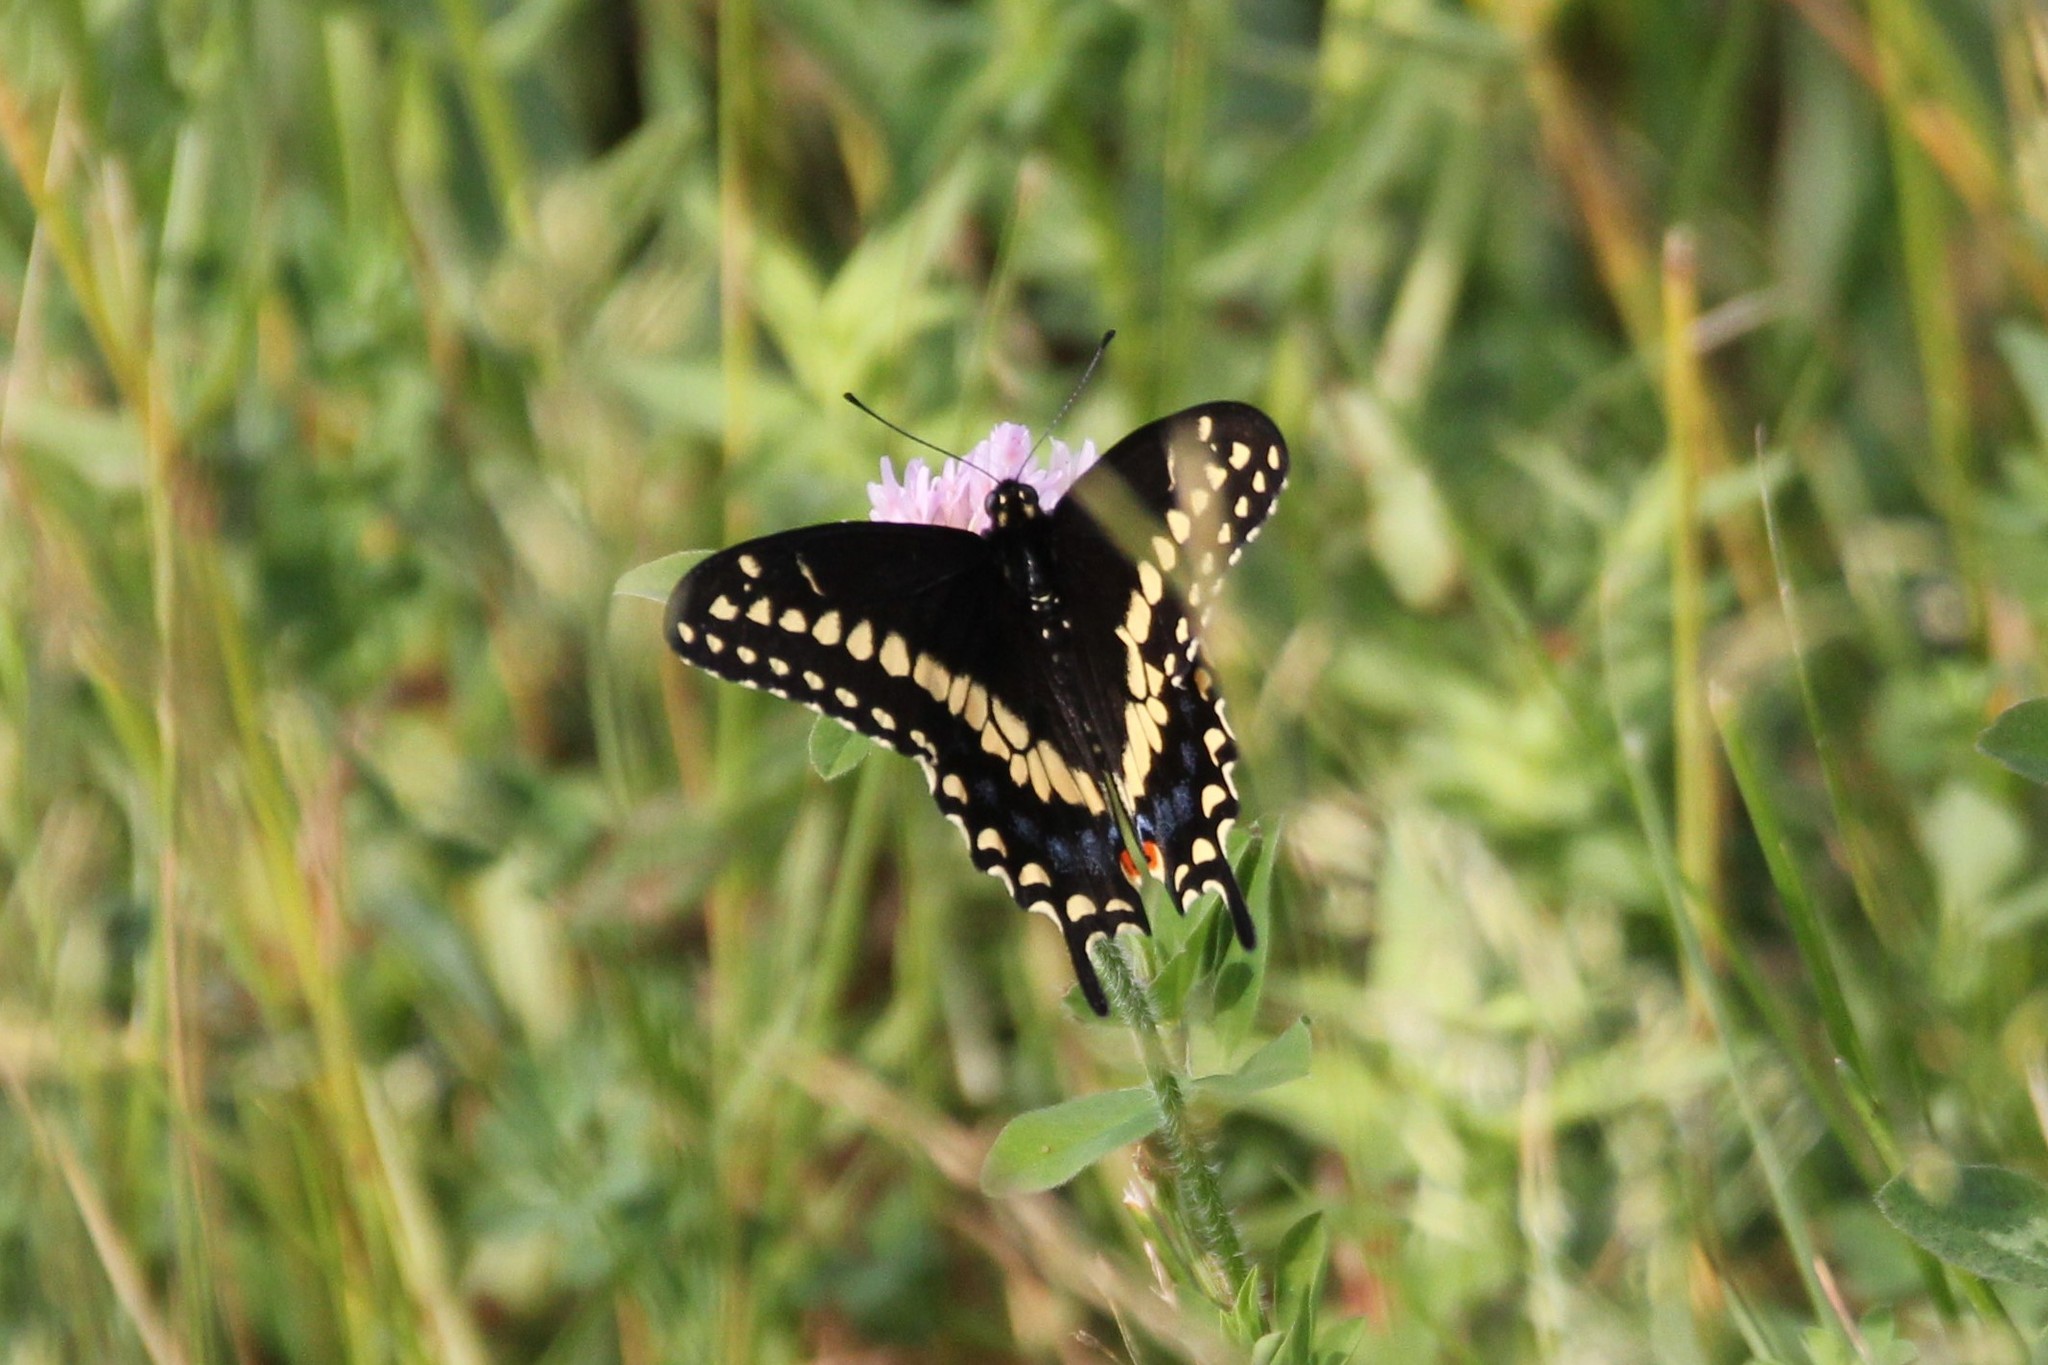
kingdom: Animalia
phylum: Arthropoda
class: Insecta
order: Lepidoptera
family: Papilionidae
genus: Papilio
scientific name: Papilio polyxenes
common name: Black swallowtail
